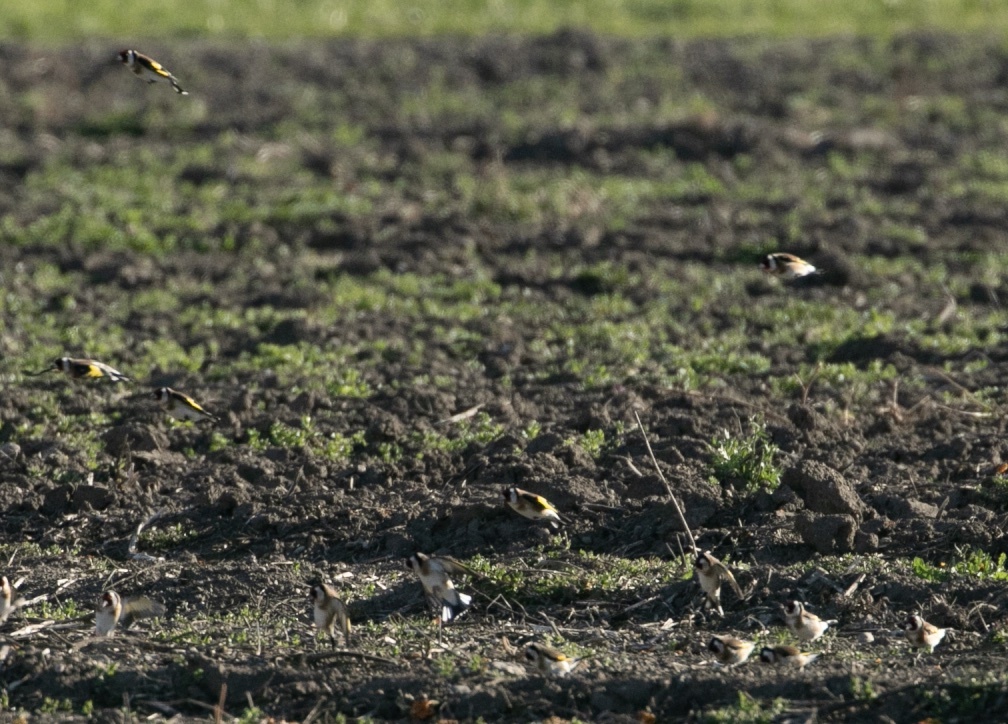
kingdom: Animalia
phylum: Chordata
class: Aves
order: Passeriformes
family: Fringillidae
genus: Carduelis
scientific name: Carduelis carduelis
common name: European goldfinch
